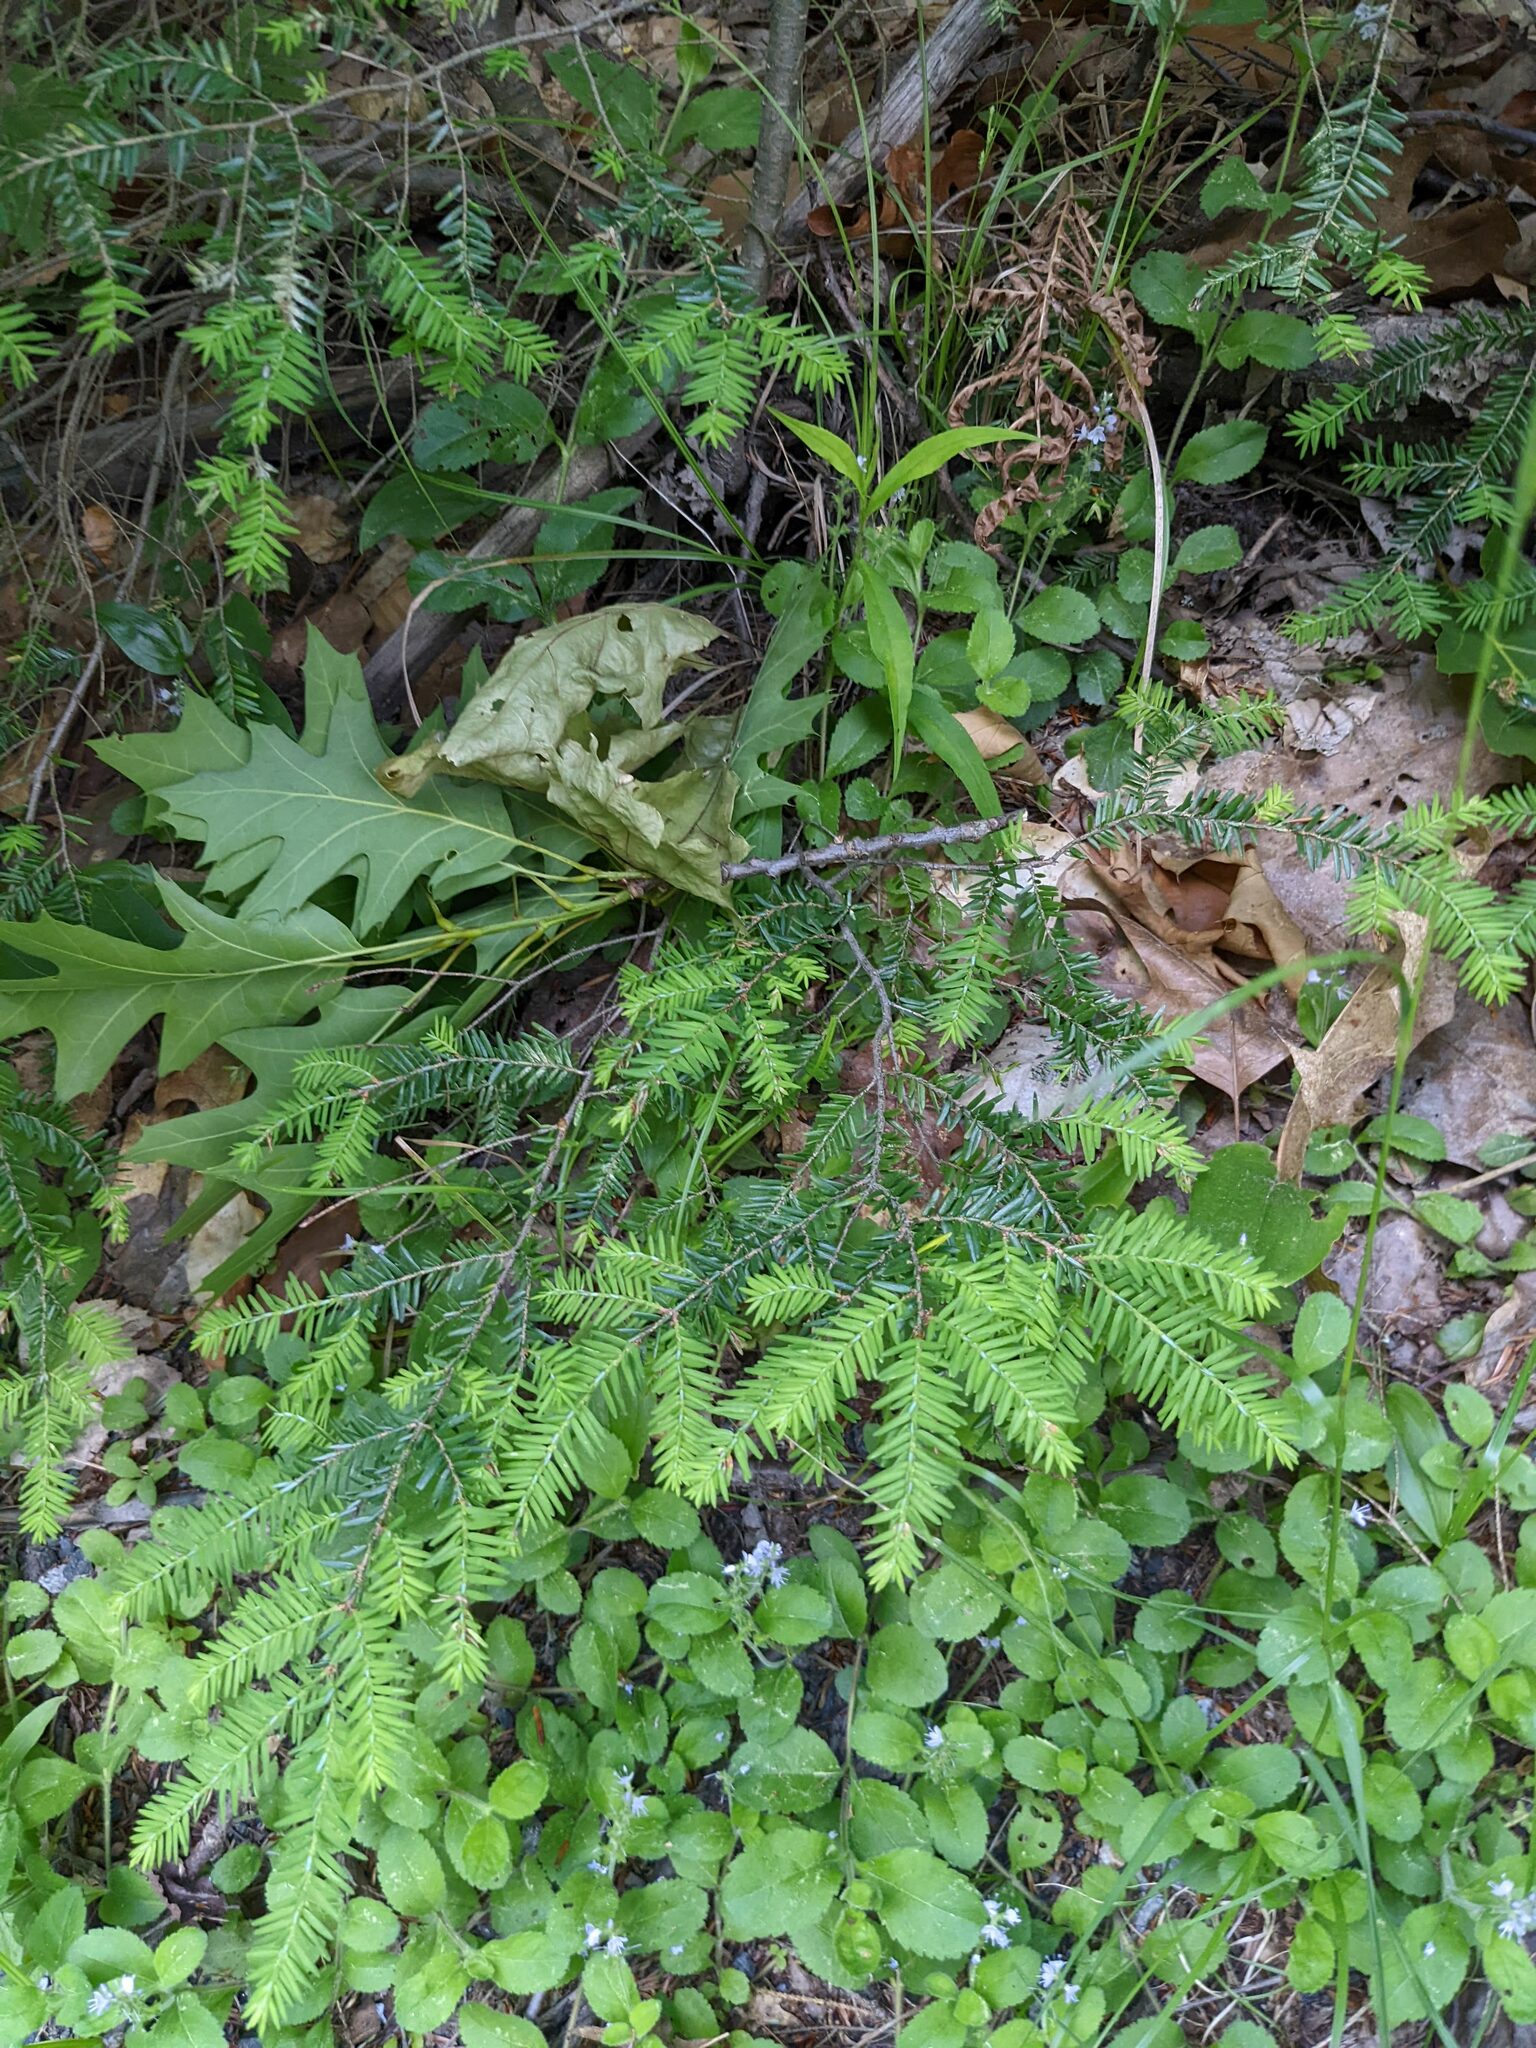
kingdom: Plantae
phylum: Tracheophyta
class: Pinopsida
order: Pinales
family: Pinaceae
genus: Tsuga
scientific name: Tsuga canadensis
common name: Eastern hemlock
